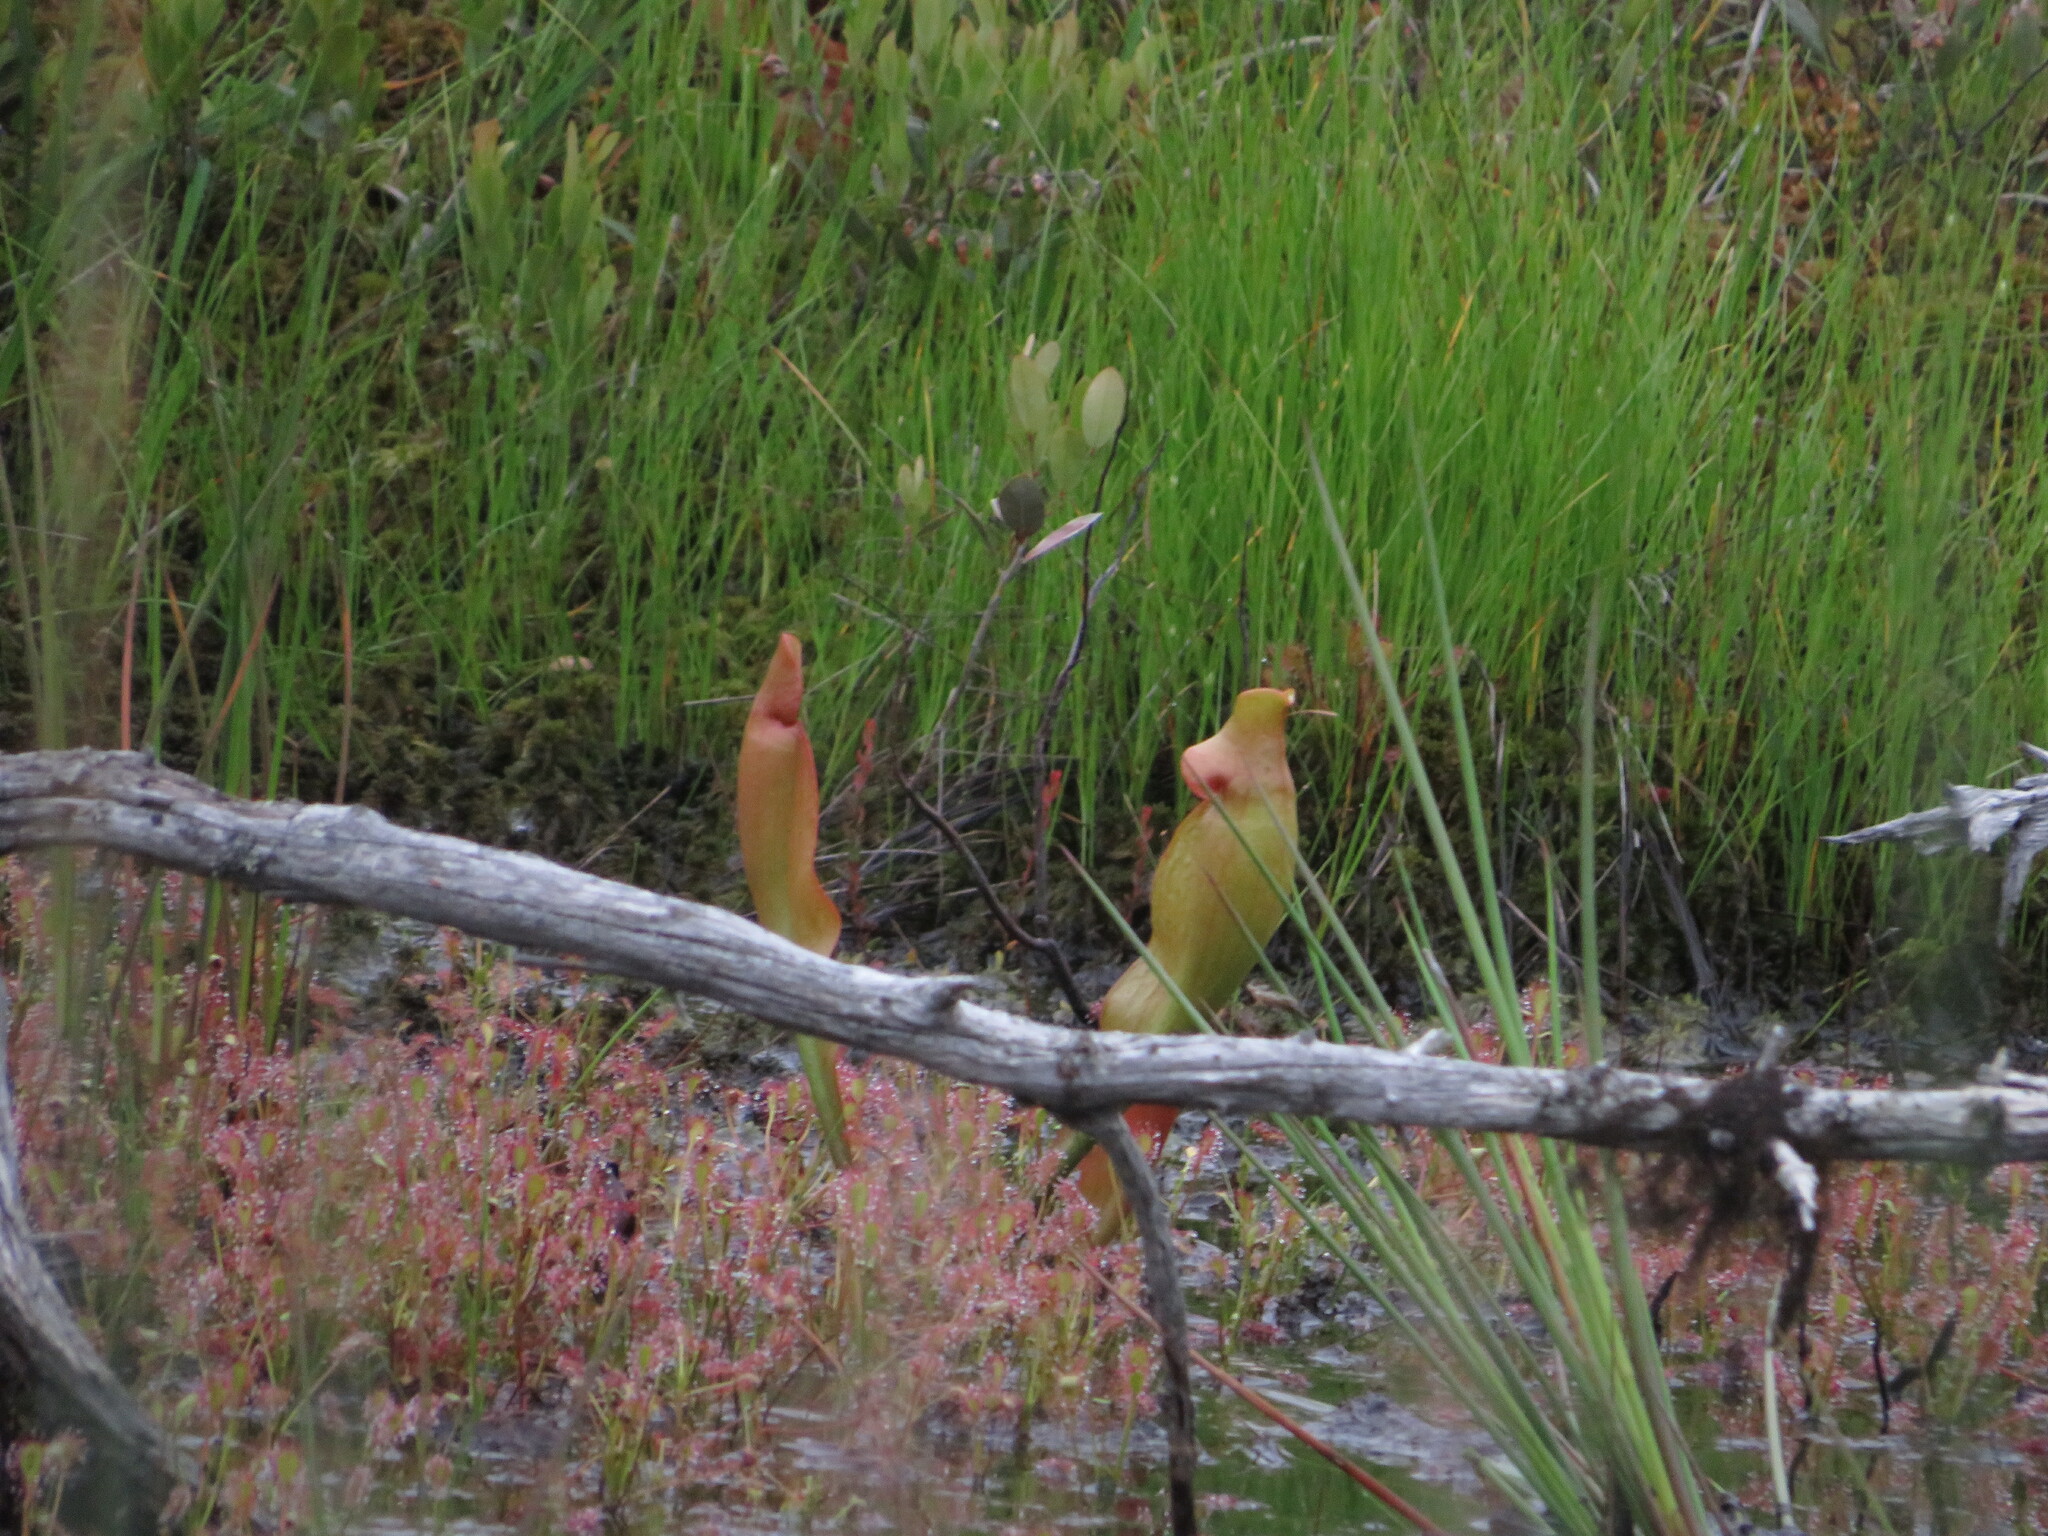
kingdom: Plantae
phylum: Tracheophyta
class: Magnoliopsida
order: Ericales
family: Sarraceniaceae
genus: Sarracenia
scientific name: Sarracenia purpurea
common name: Pitcherplant
